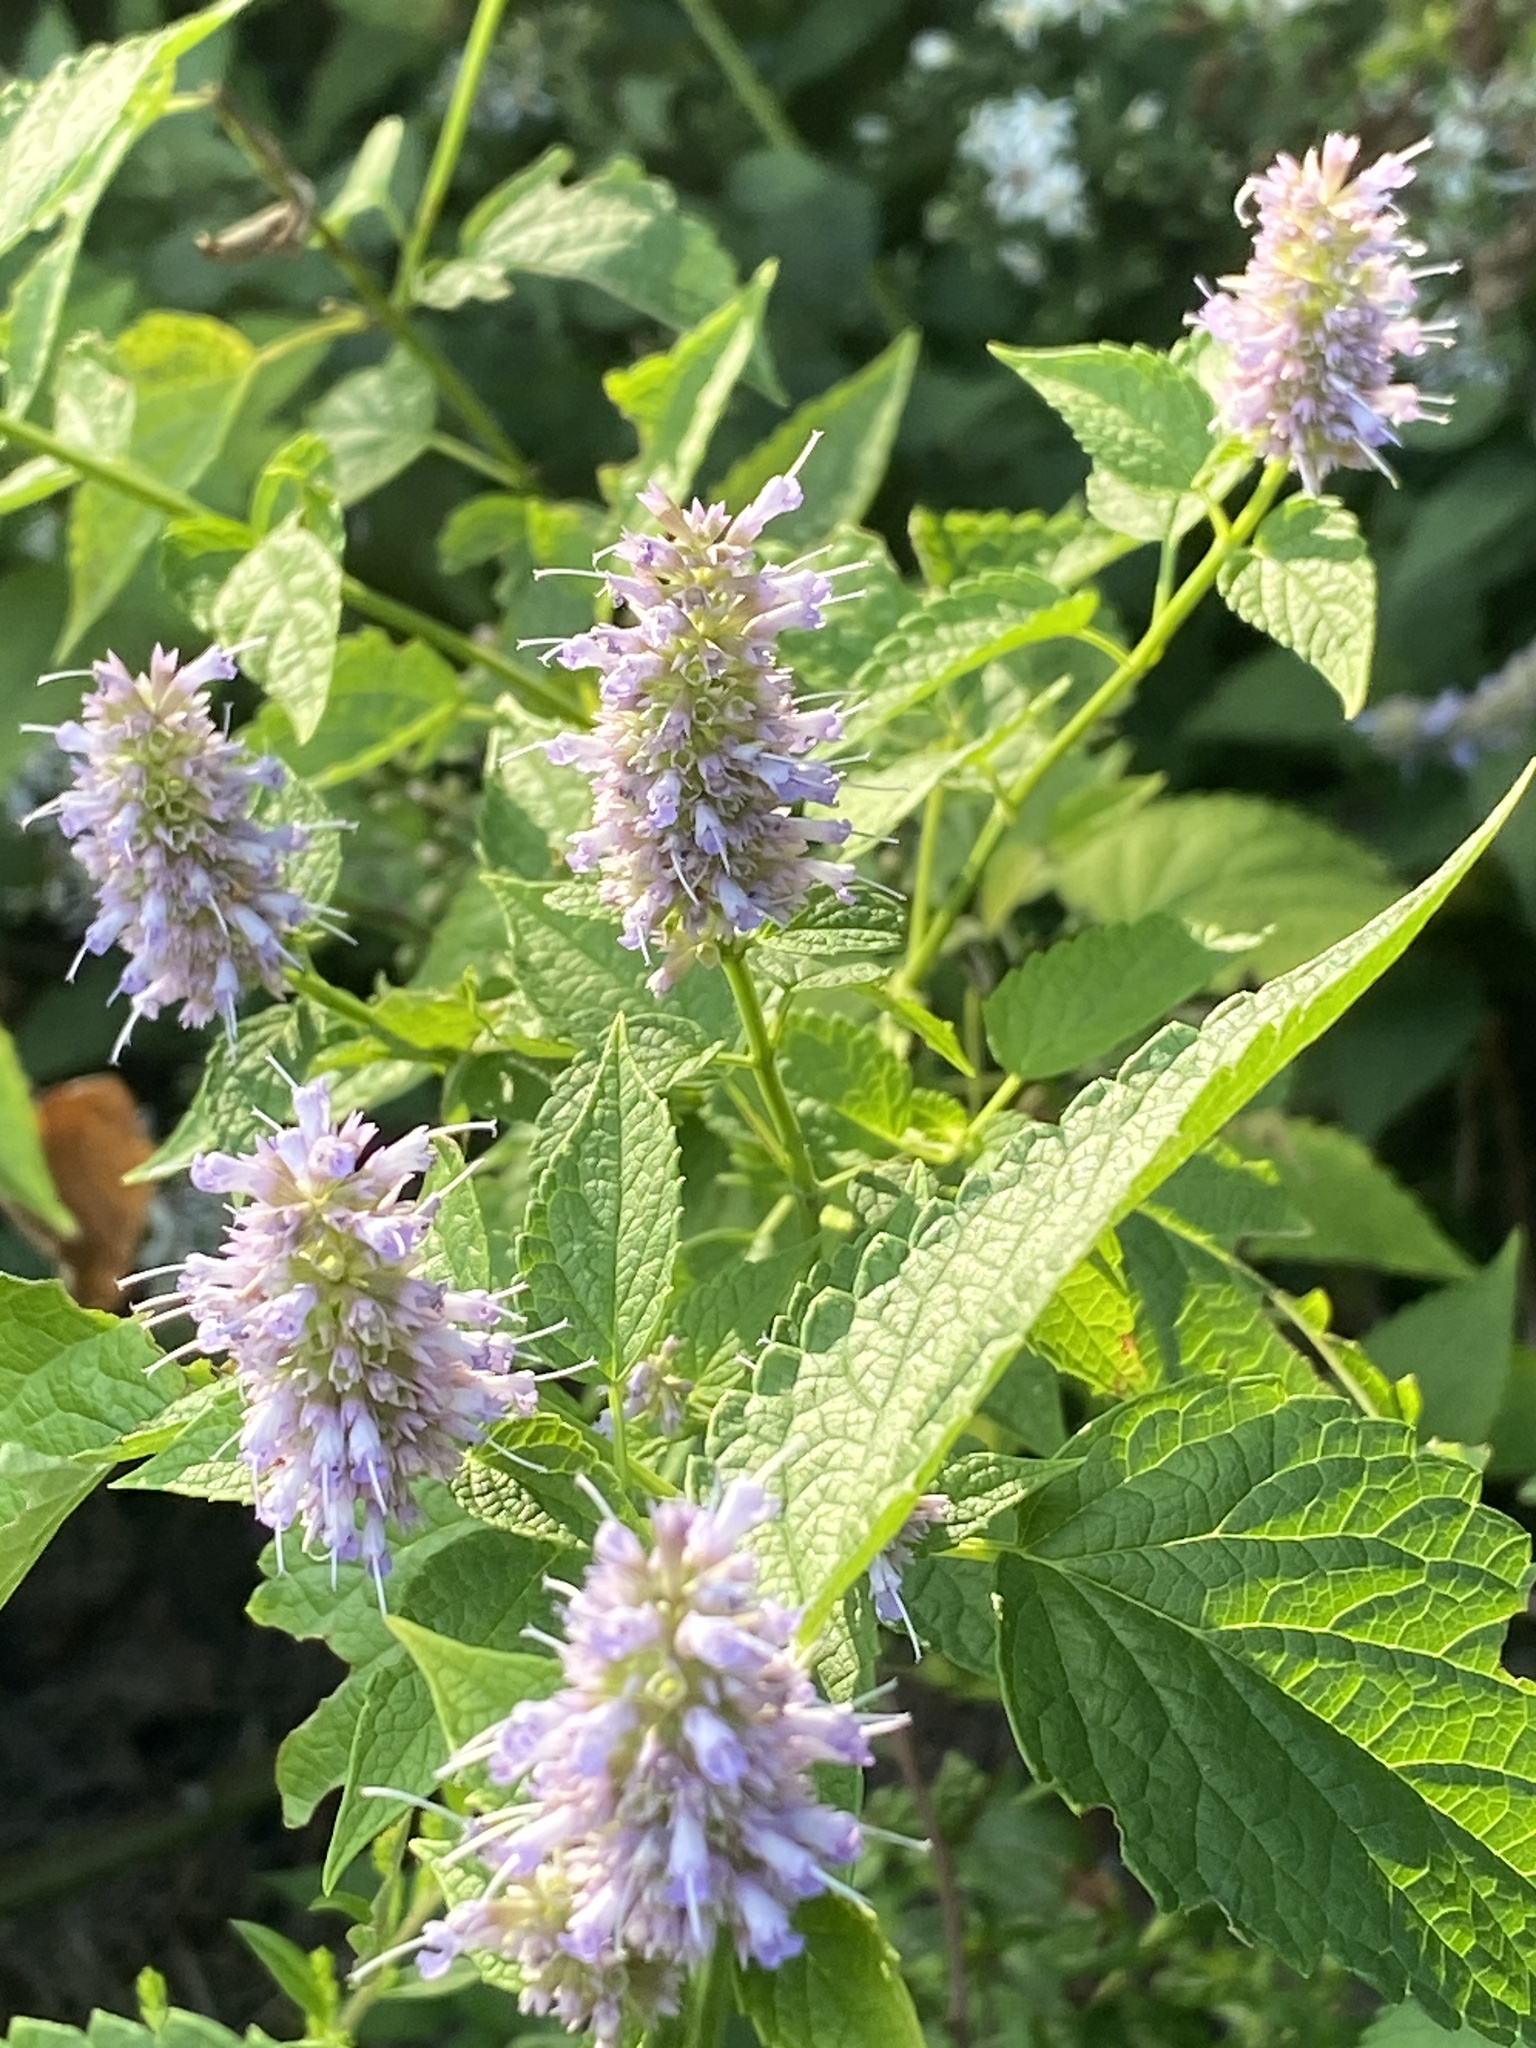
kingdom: Plantae
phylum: Tracheophyta
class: Magnoliopsida
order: Lamiales
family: Lamiaceae
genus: Agastache
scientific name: Agastache foeniculum
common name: Anise hyssop
